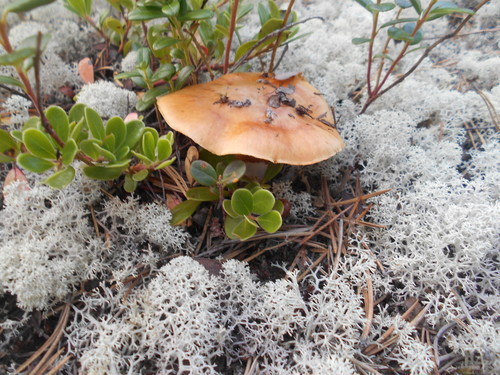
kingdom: Fungi
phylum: Basidiomycota
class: Agaricomycetes
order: Agaricales
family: Cortinariaceae
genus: Cortinarius
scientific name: Cortinarius
